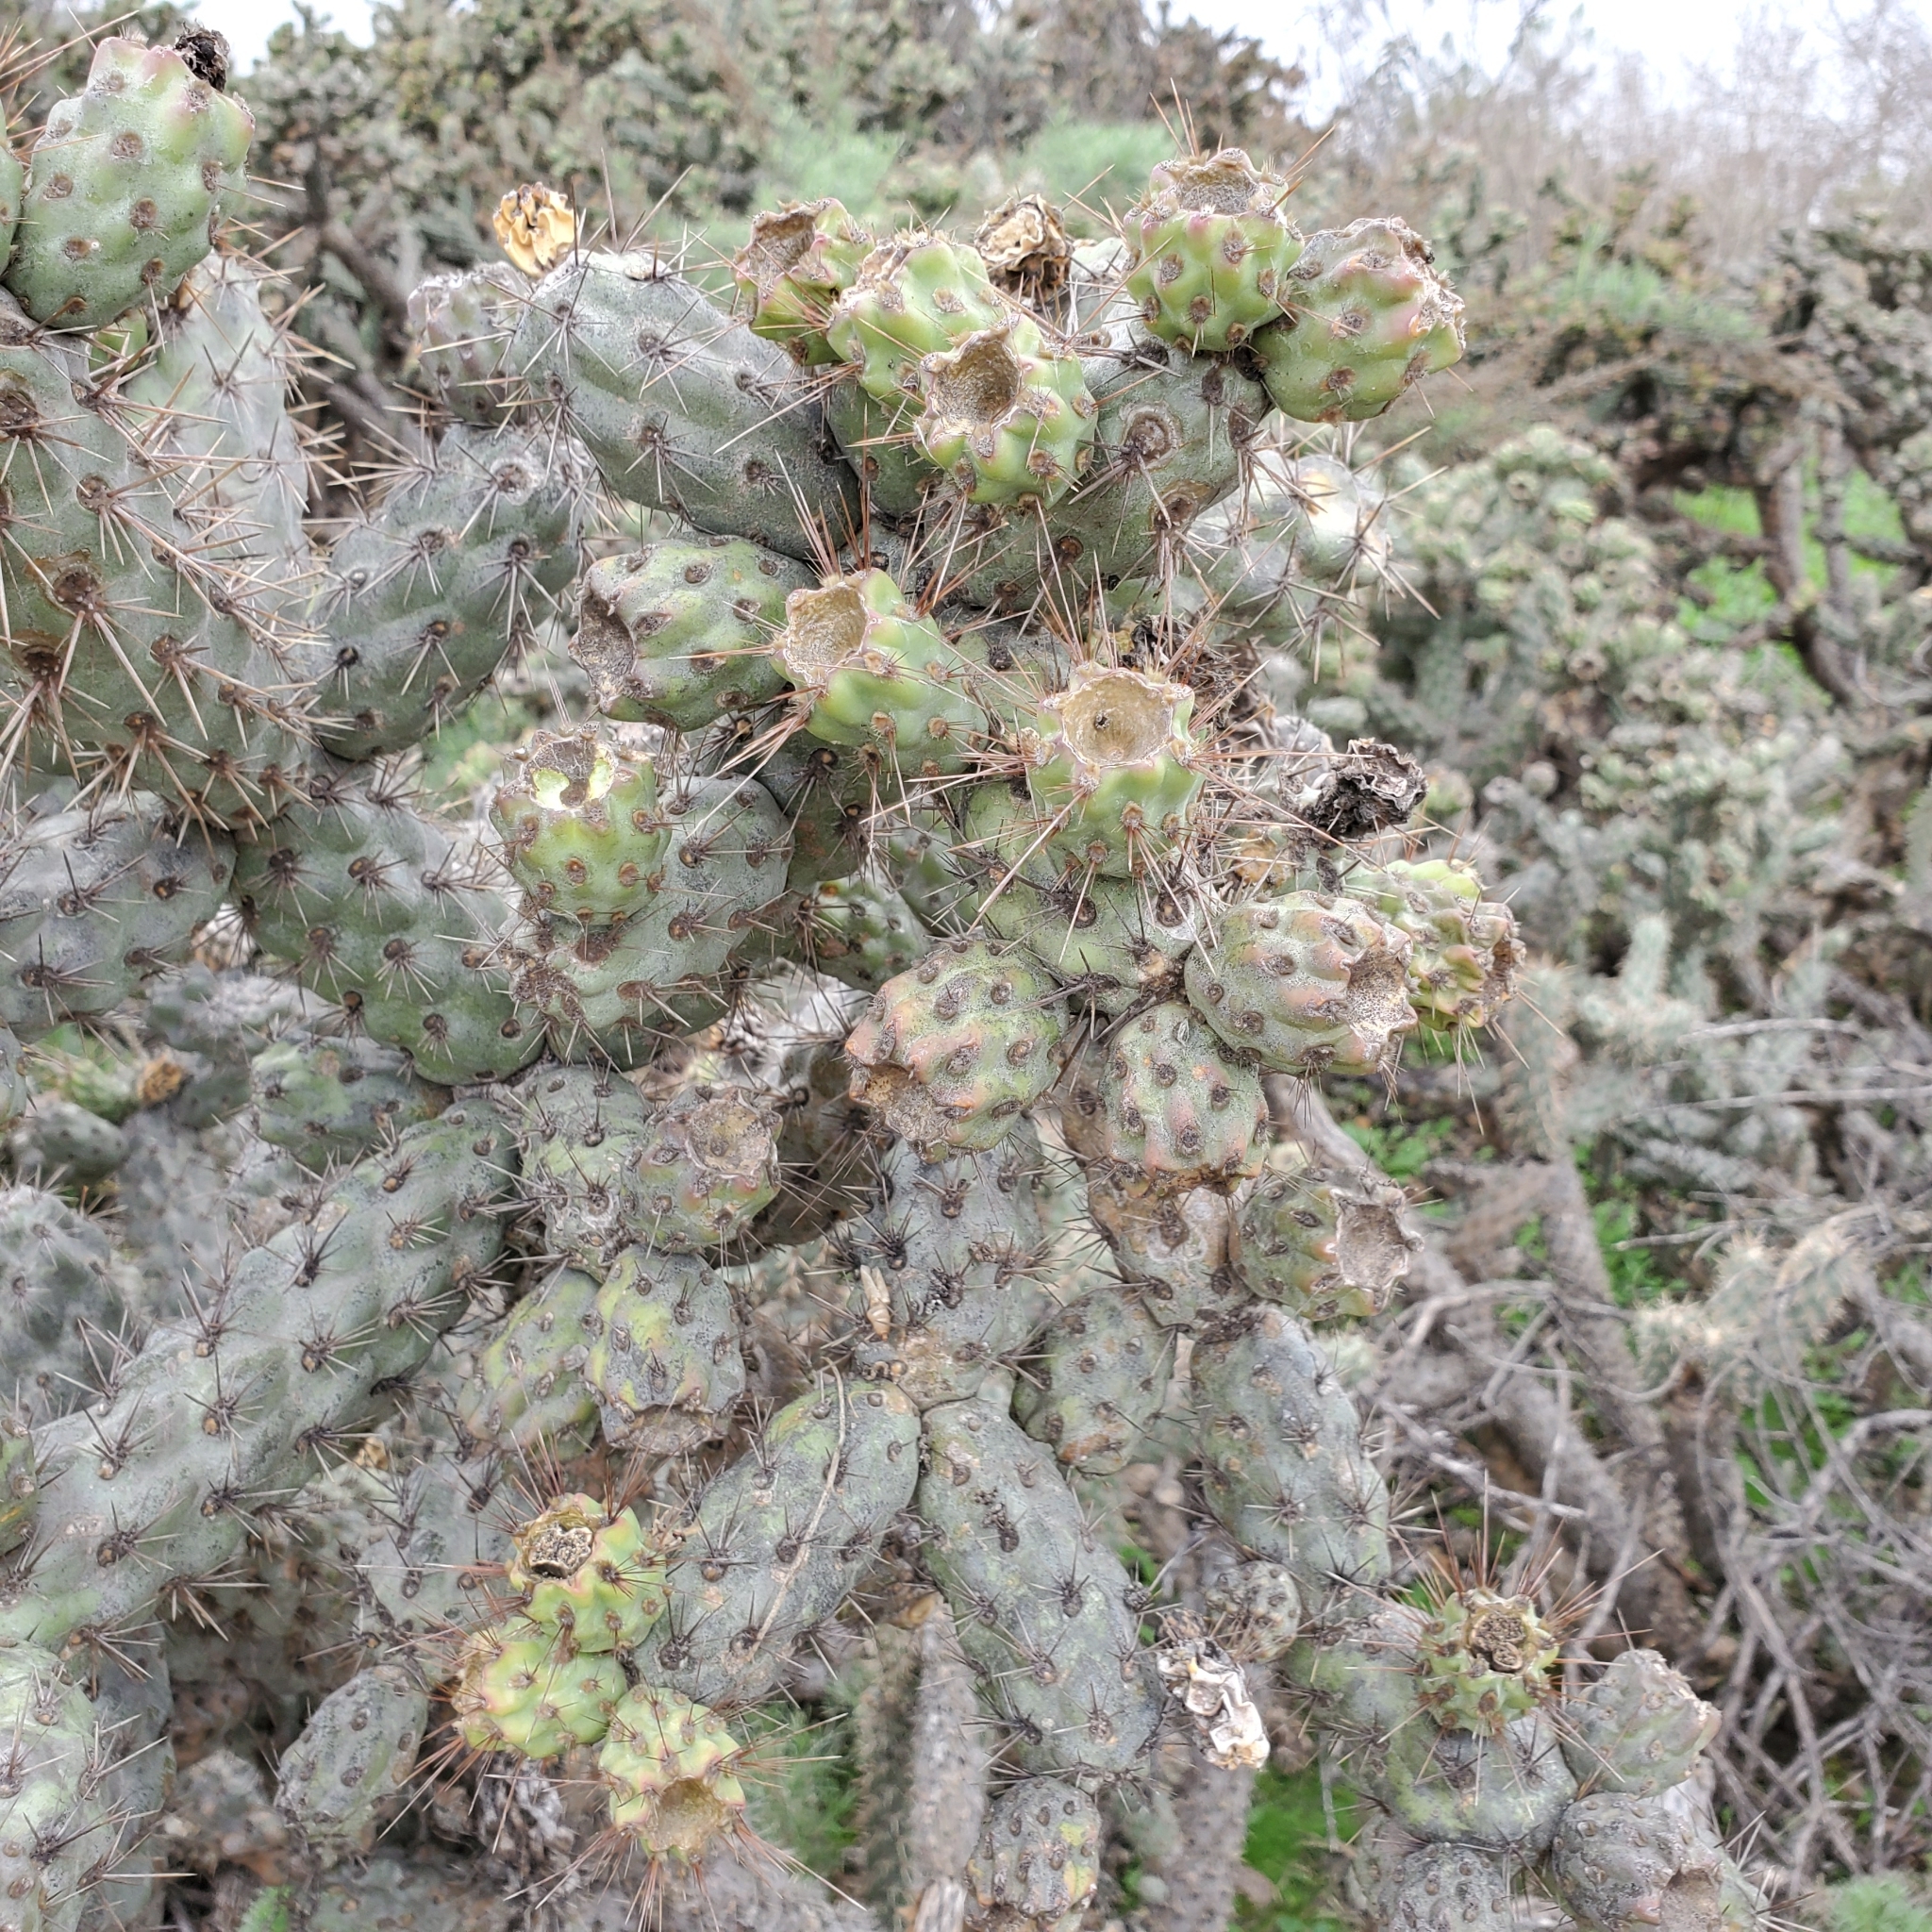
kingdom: Plantae
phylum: Tracheophyta
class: Magnoliopsida
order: Caryophyllales
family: Cactaceae
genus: Cylindropuntia
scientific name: Cylindropuntia prolifera
